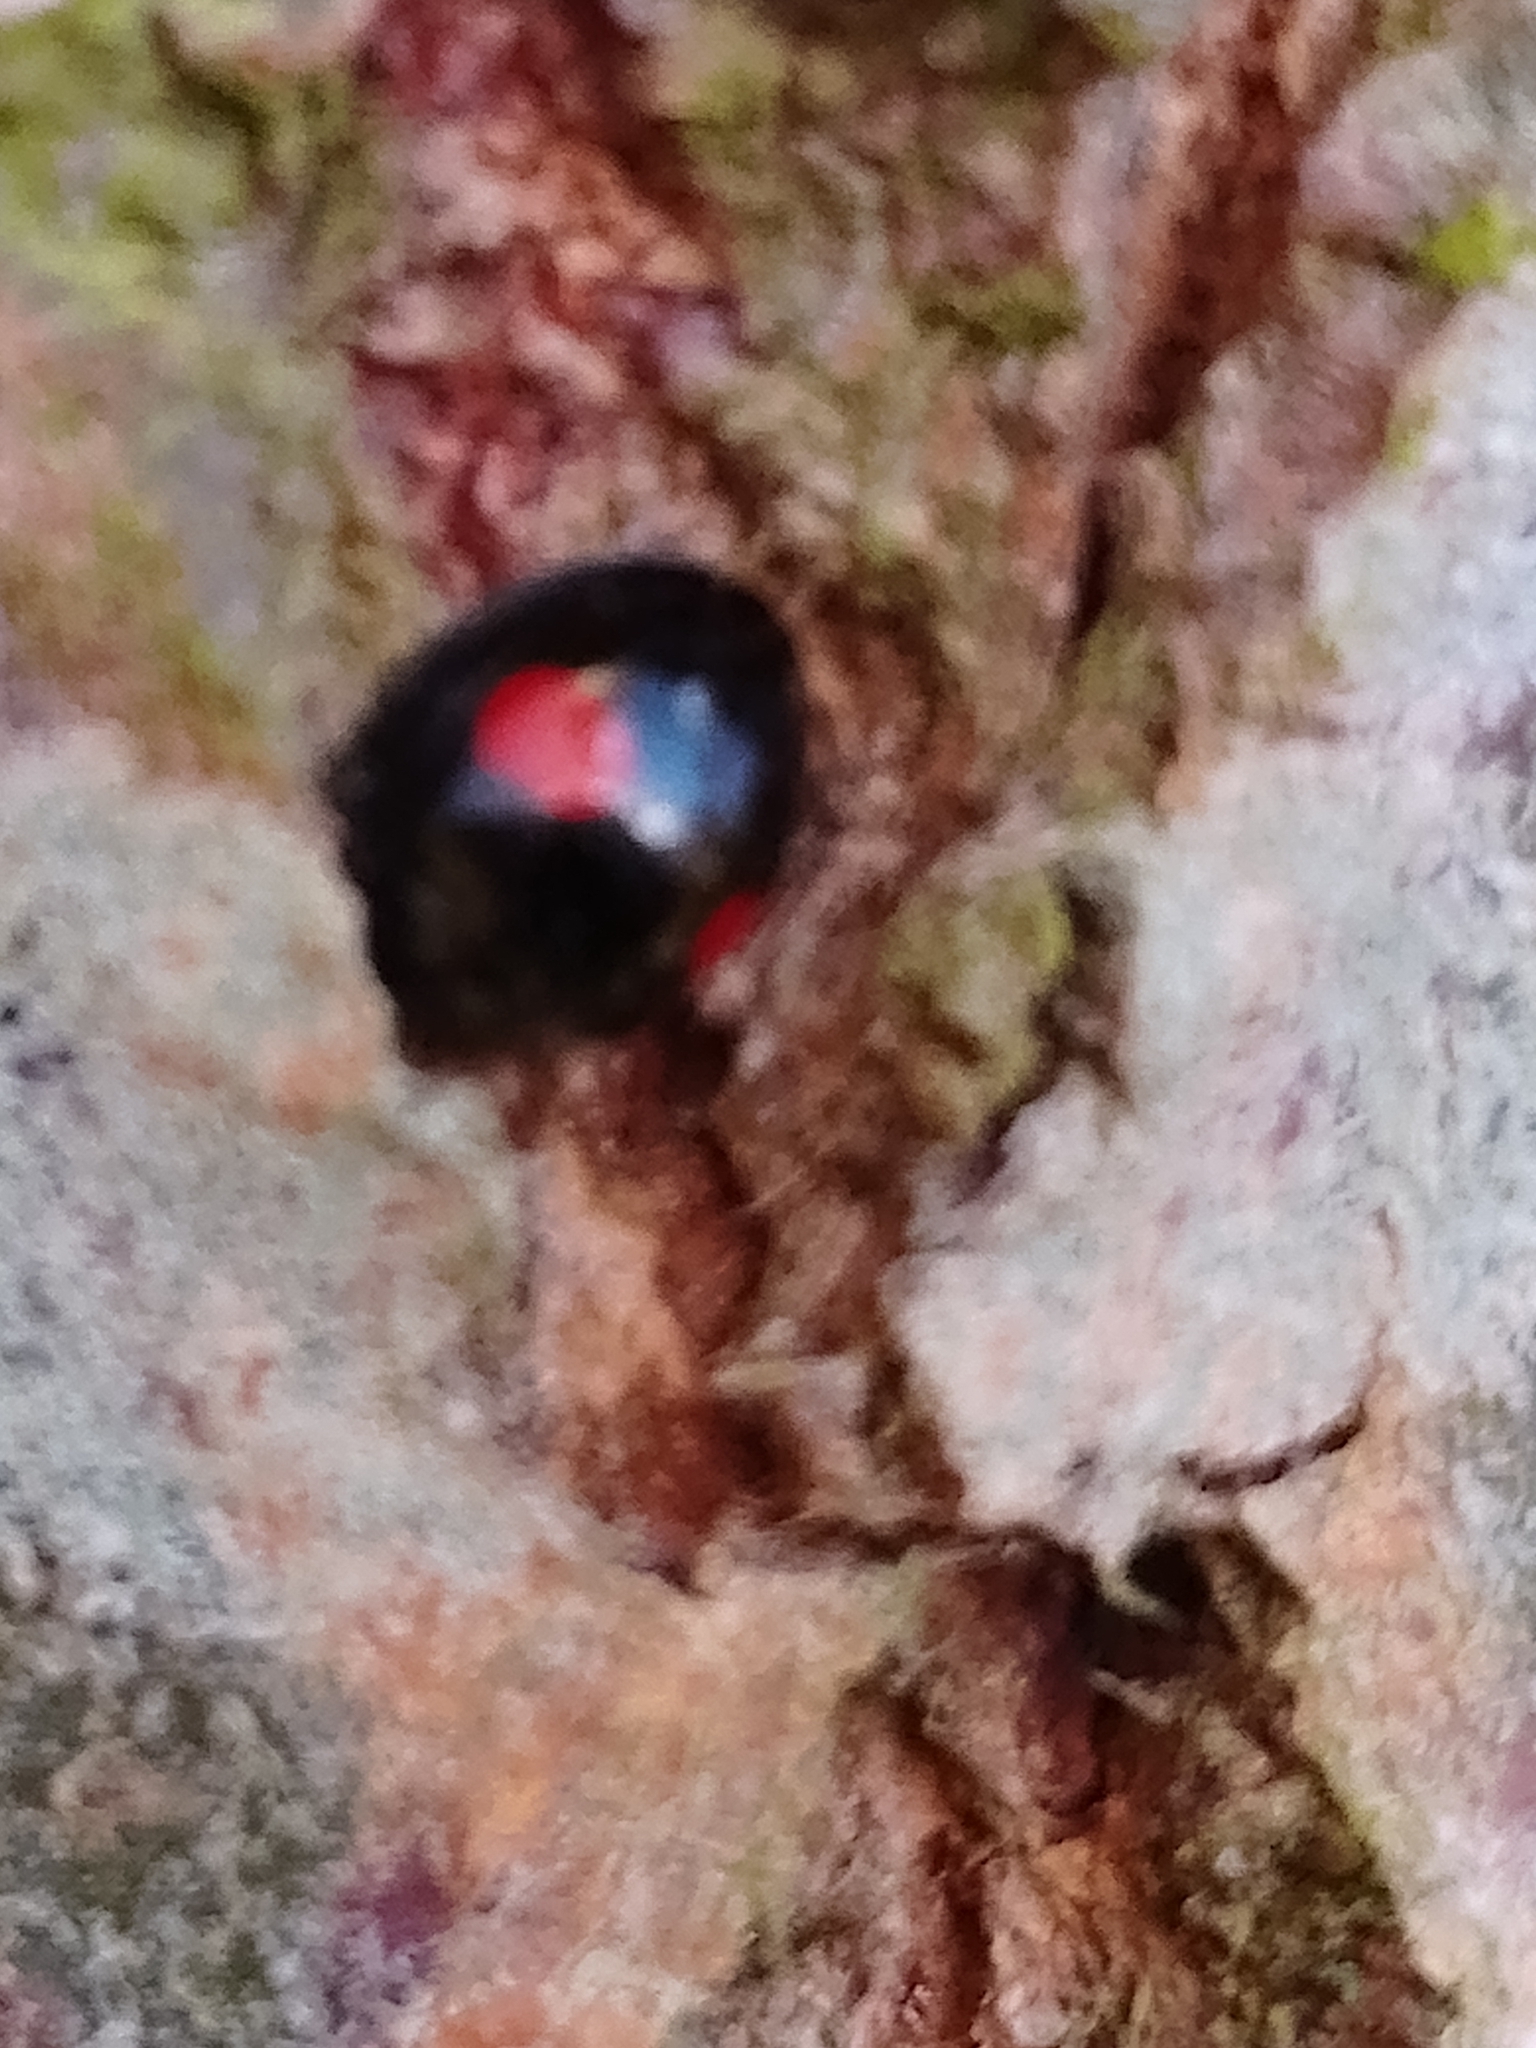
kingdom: Animalia
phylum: Arthropoda
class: Insecta
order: Coleoptera
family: Coccinellidae
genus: Chilocorus
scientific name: Chilocorus renipustulatus
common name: Kidney-spot ladybird
